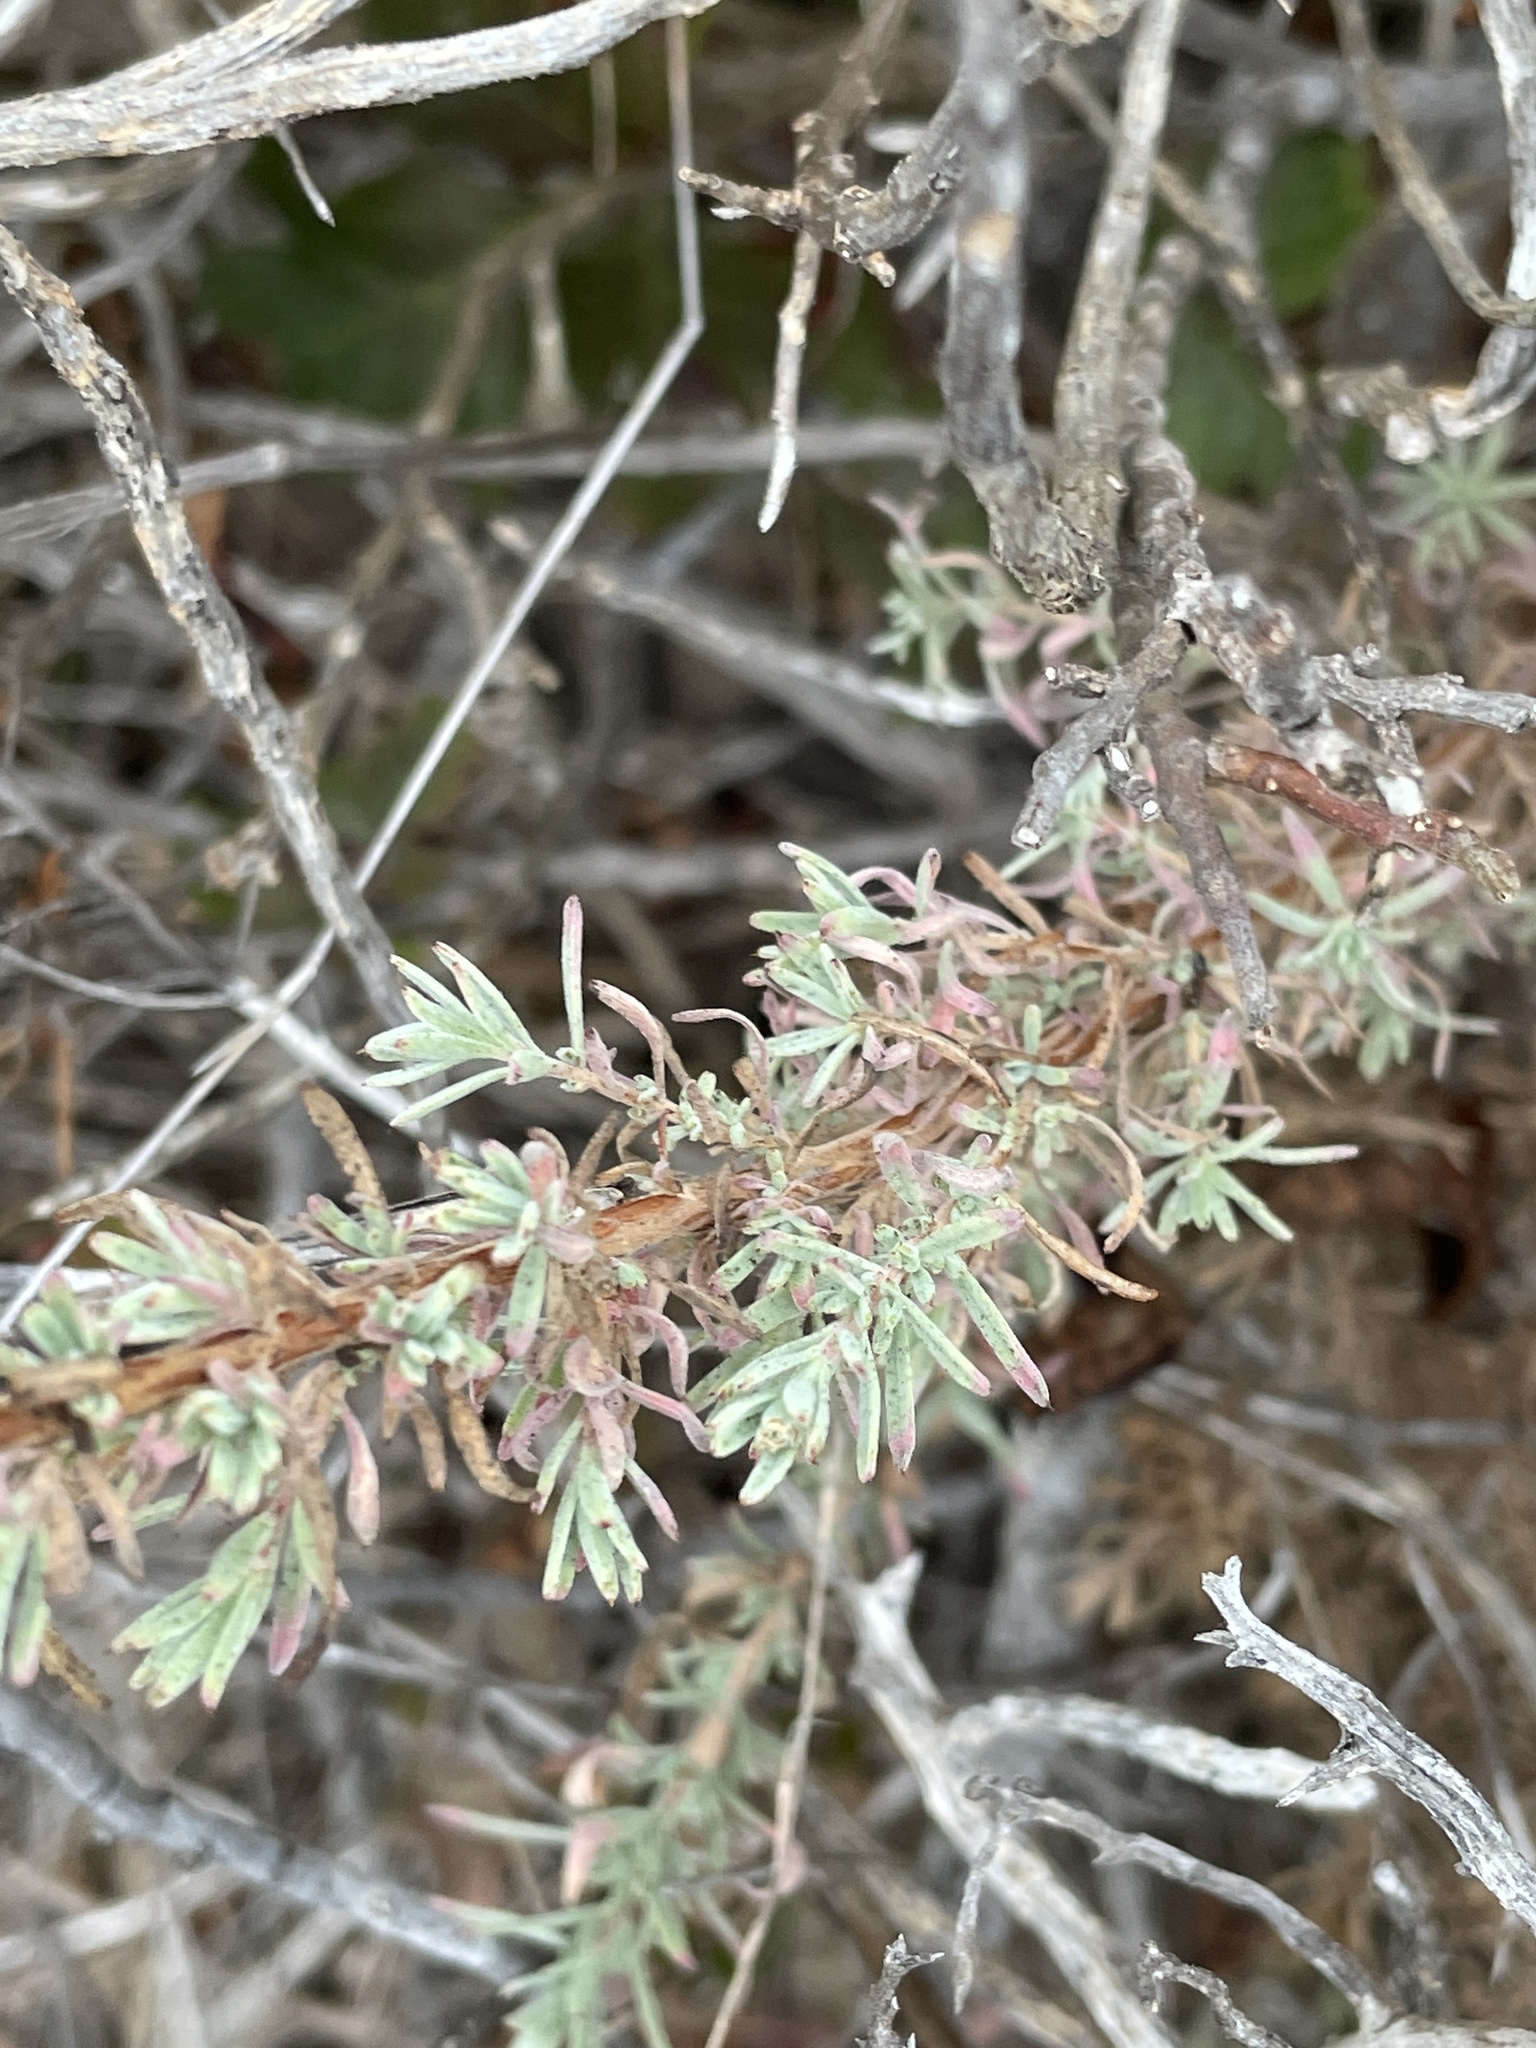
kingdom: Plantae
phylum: Tracheophyta
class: Magnoliopsida
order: Myrtales
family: Onagraceae
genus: Epilobium
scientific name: Epilobium canum
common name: California-fuchsia
